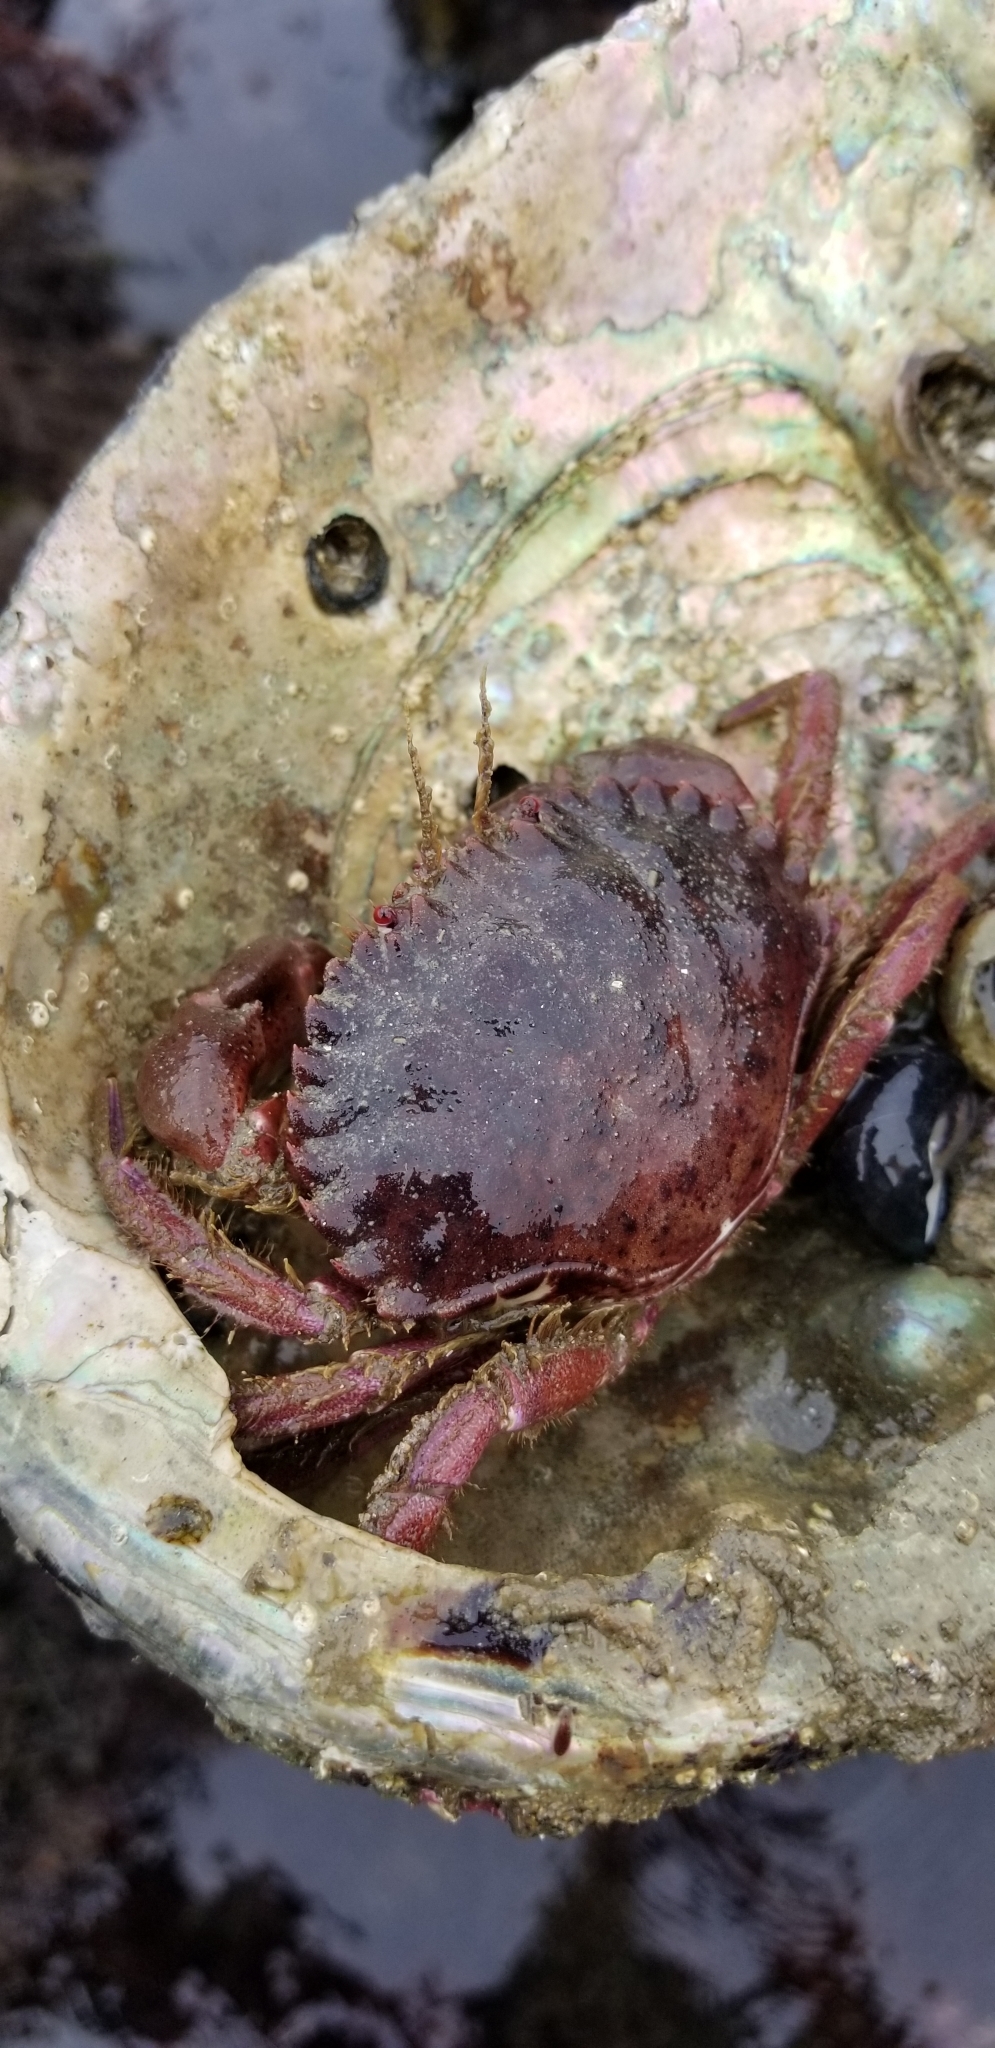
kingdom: Animalia
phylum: Arthropoda
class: Malacostraca
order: Decapoda
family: Cancridae
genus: Romaleon
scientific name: Romaleon antennarium
